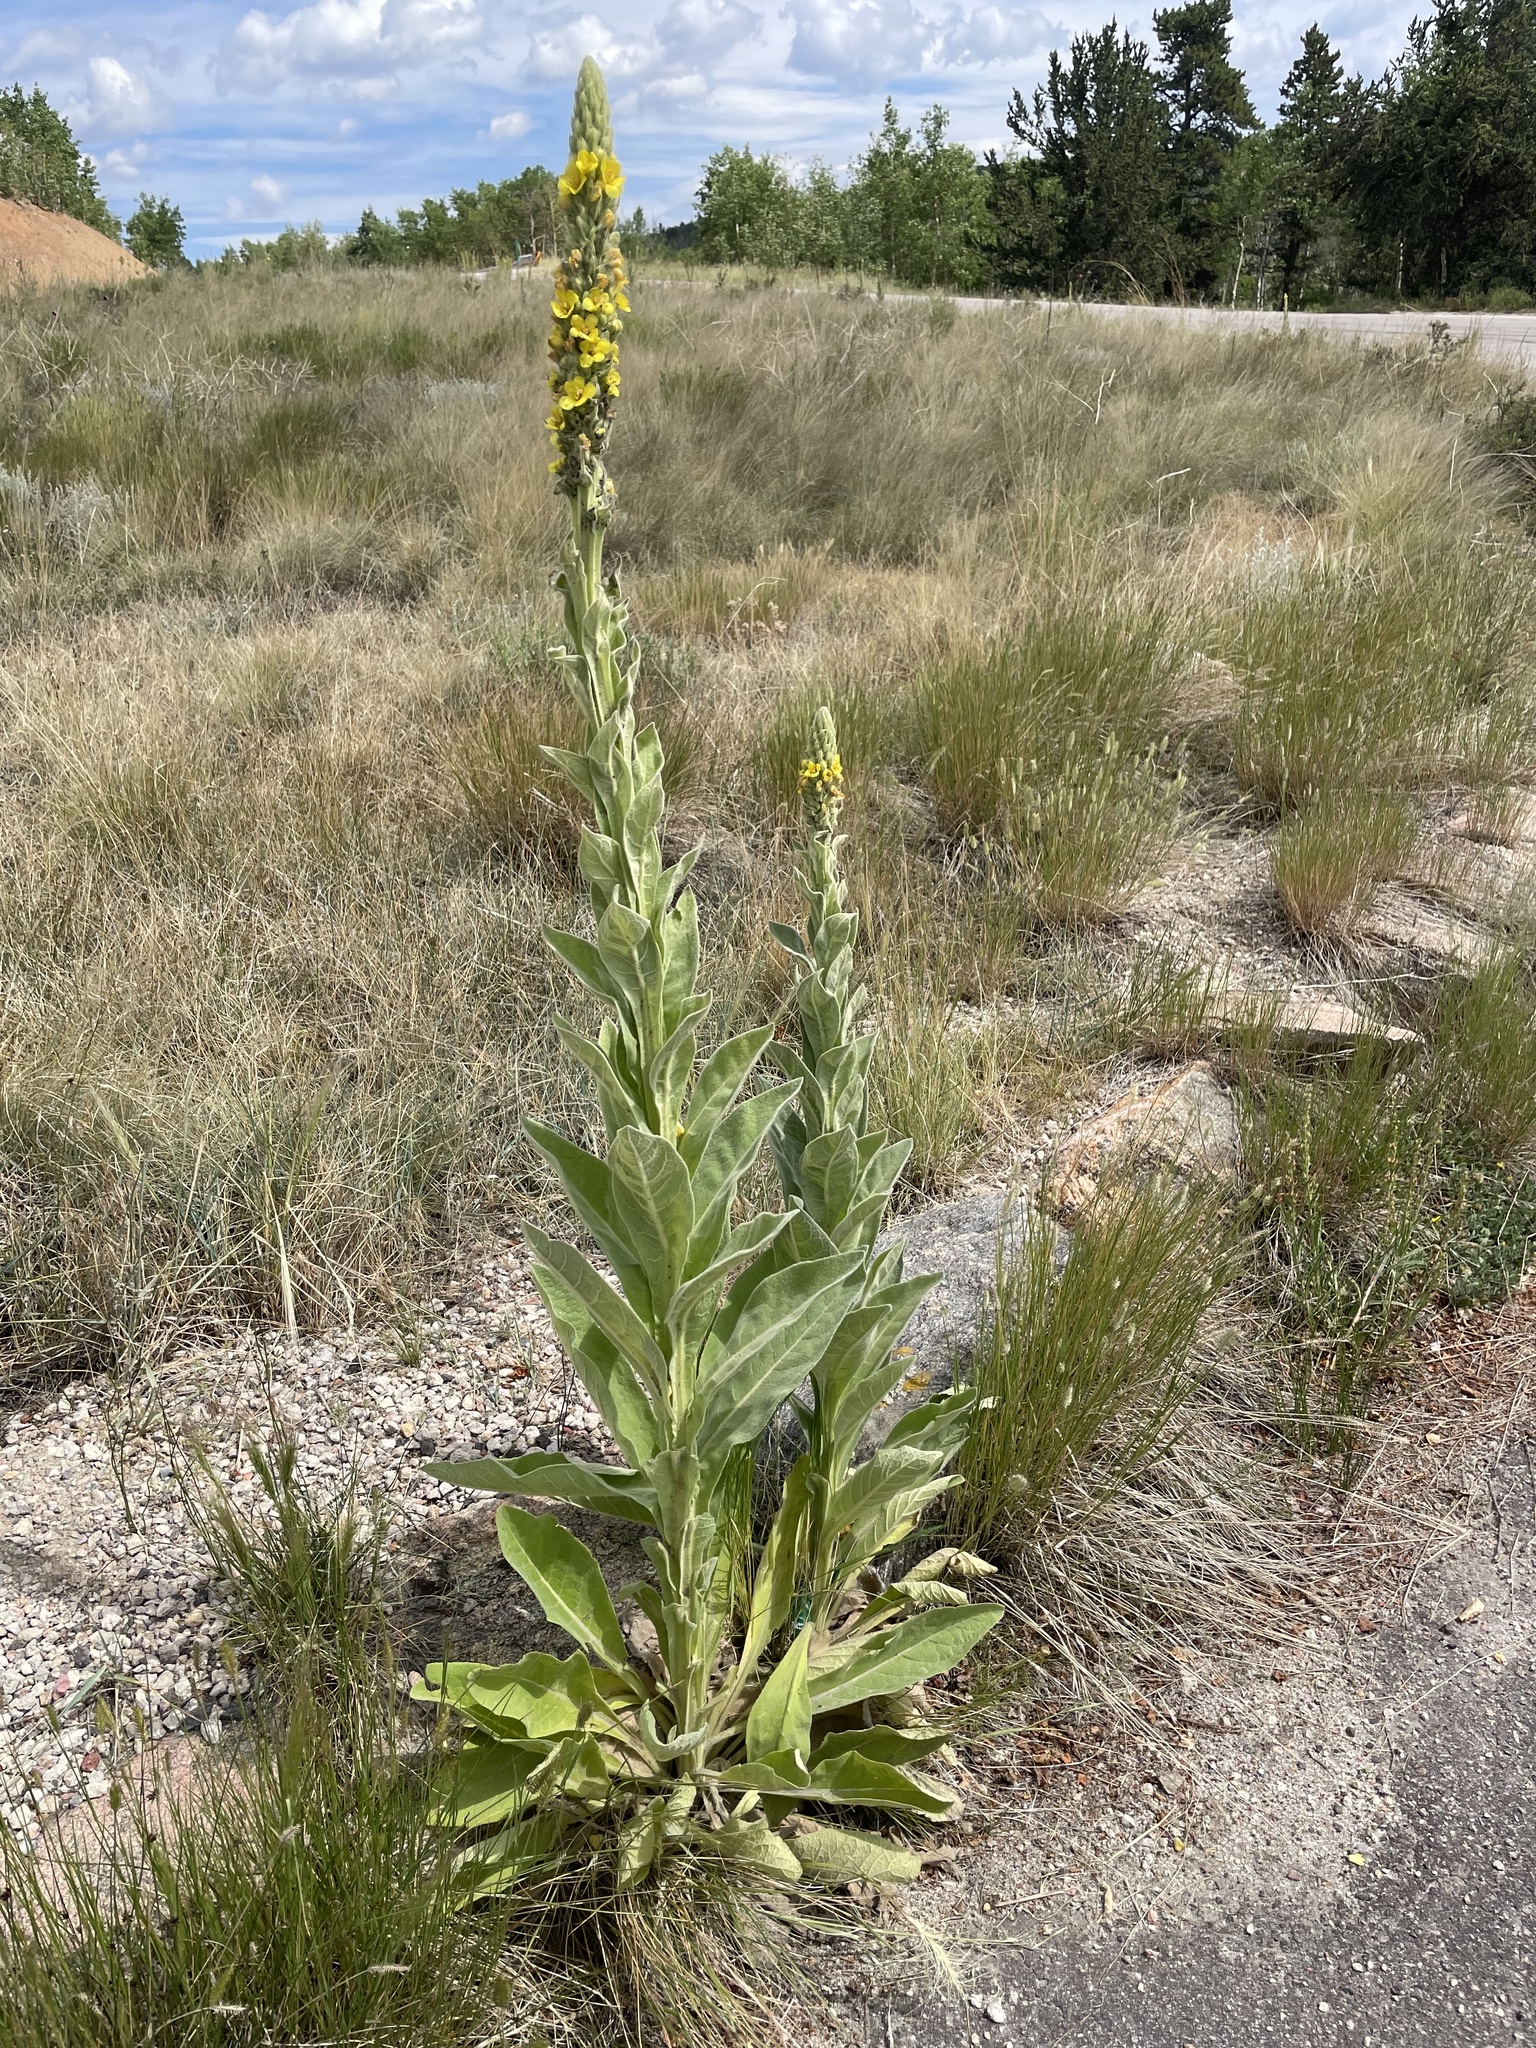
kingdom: Plantae
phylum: Tracheophyta
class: Magnoliopsida
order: Lamiales
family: Scrophulariaceae
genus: Verbascum
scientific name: Verbascum thapsus
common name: Common mullein
